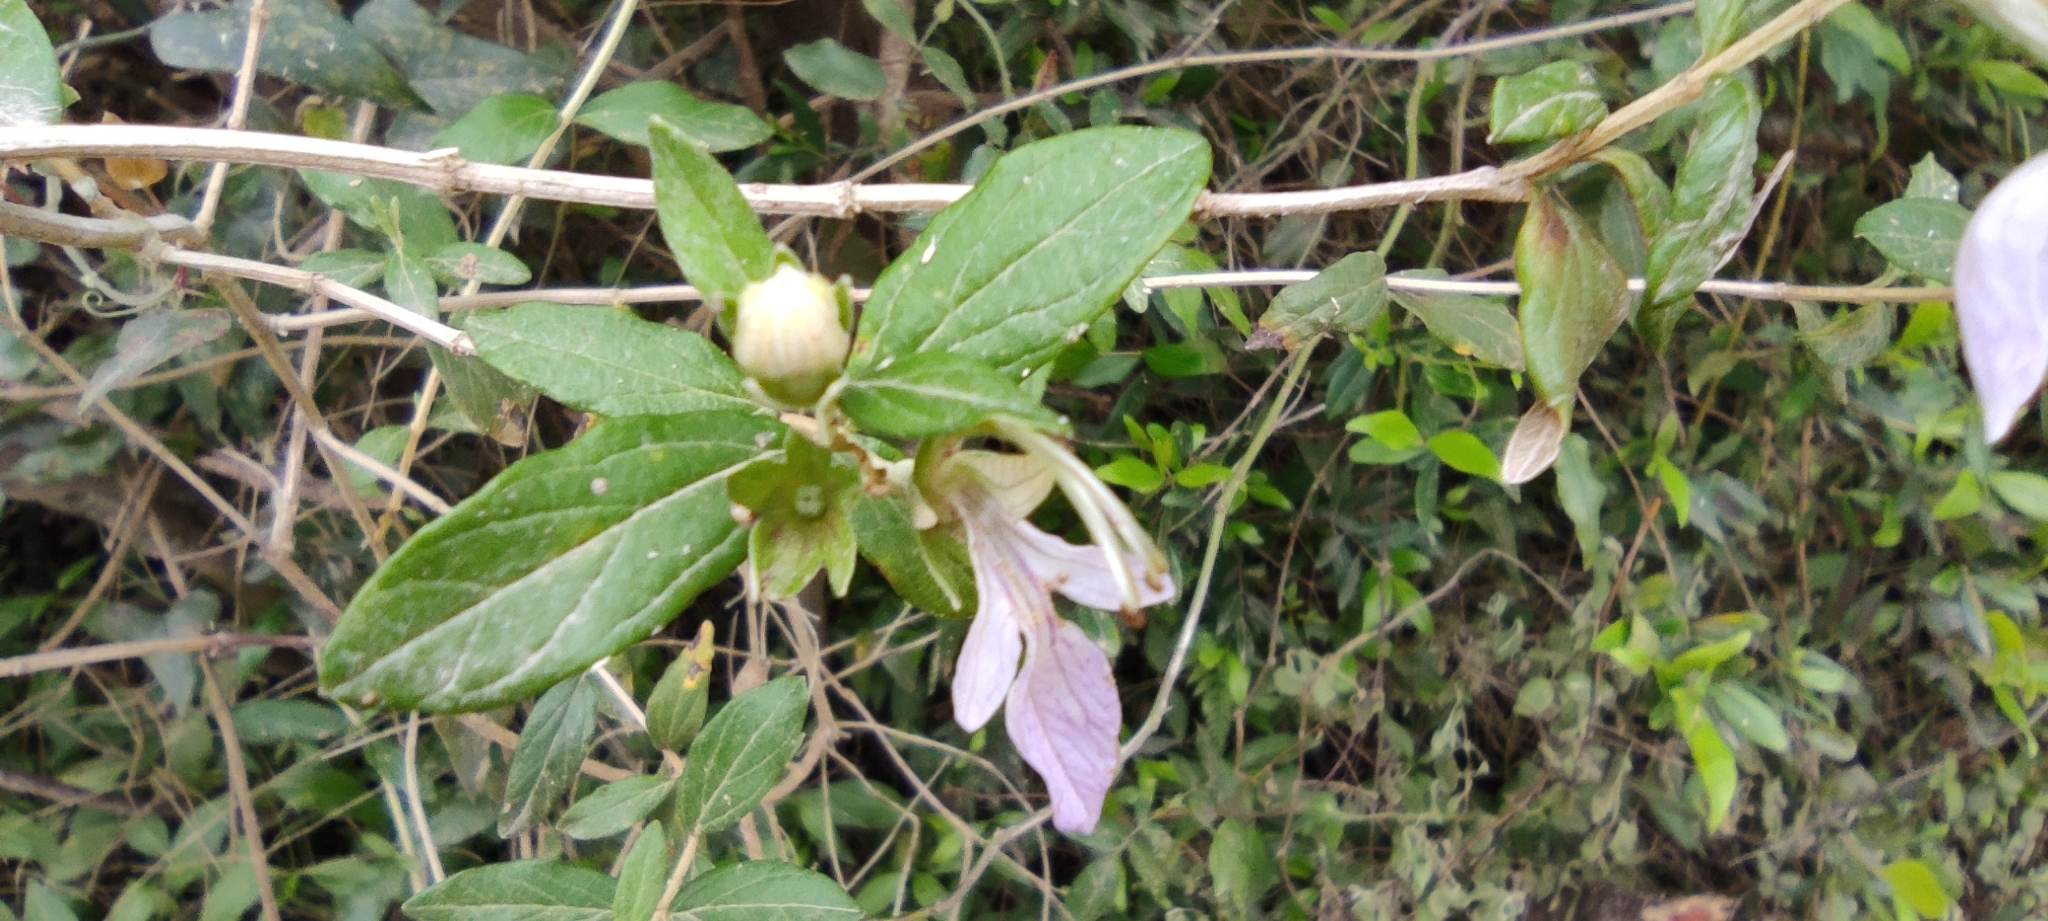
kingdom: Plantae
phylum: Tracheophyta
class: Magnoliopsida
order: Lamiales
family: Lamiaceae
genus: Teucrium
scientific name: Teucrium fruticans
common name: Shrubby germander
